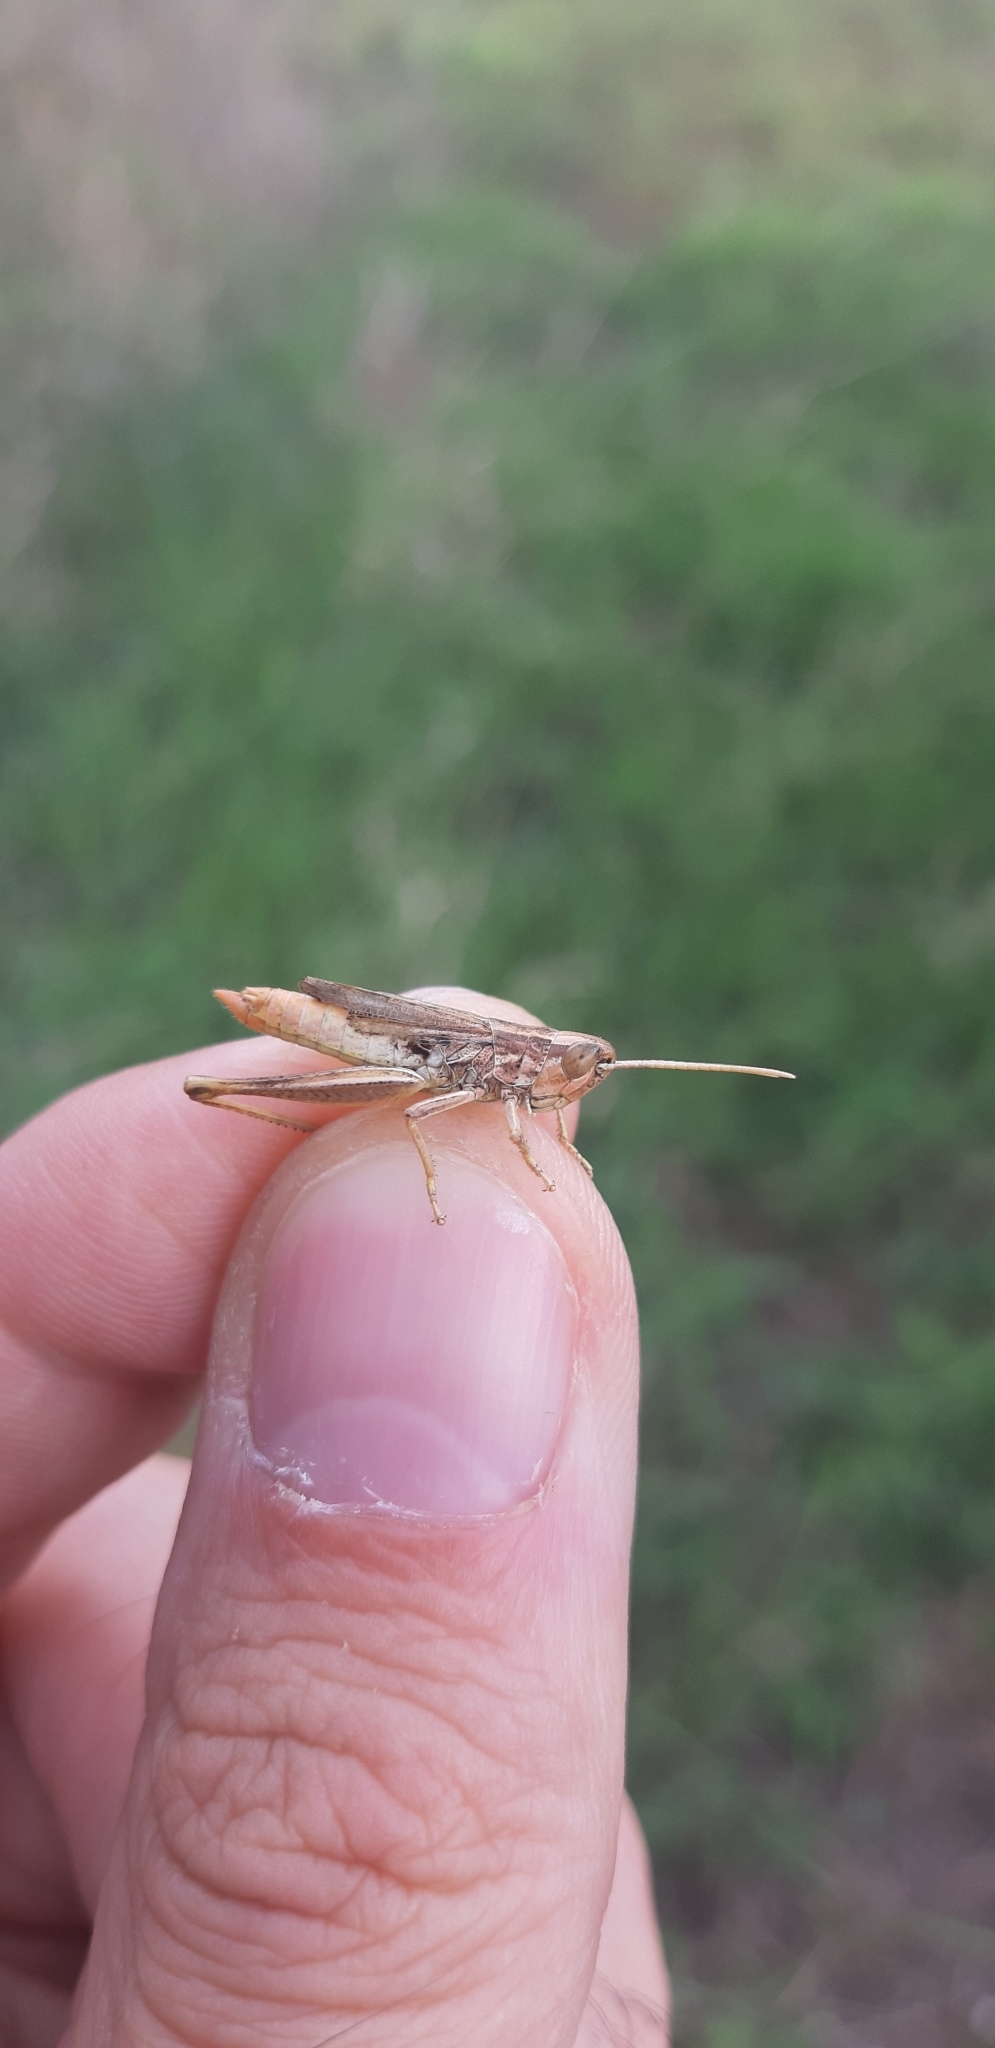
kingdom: Animalia
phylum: Arthropoda
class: Insecta
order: Orthoptera
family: Acrididae
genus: Euchorthippus
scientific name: Euchorthippus declivus
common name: Common straw grasshopper
